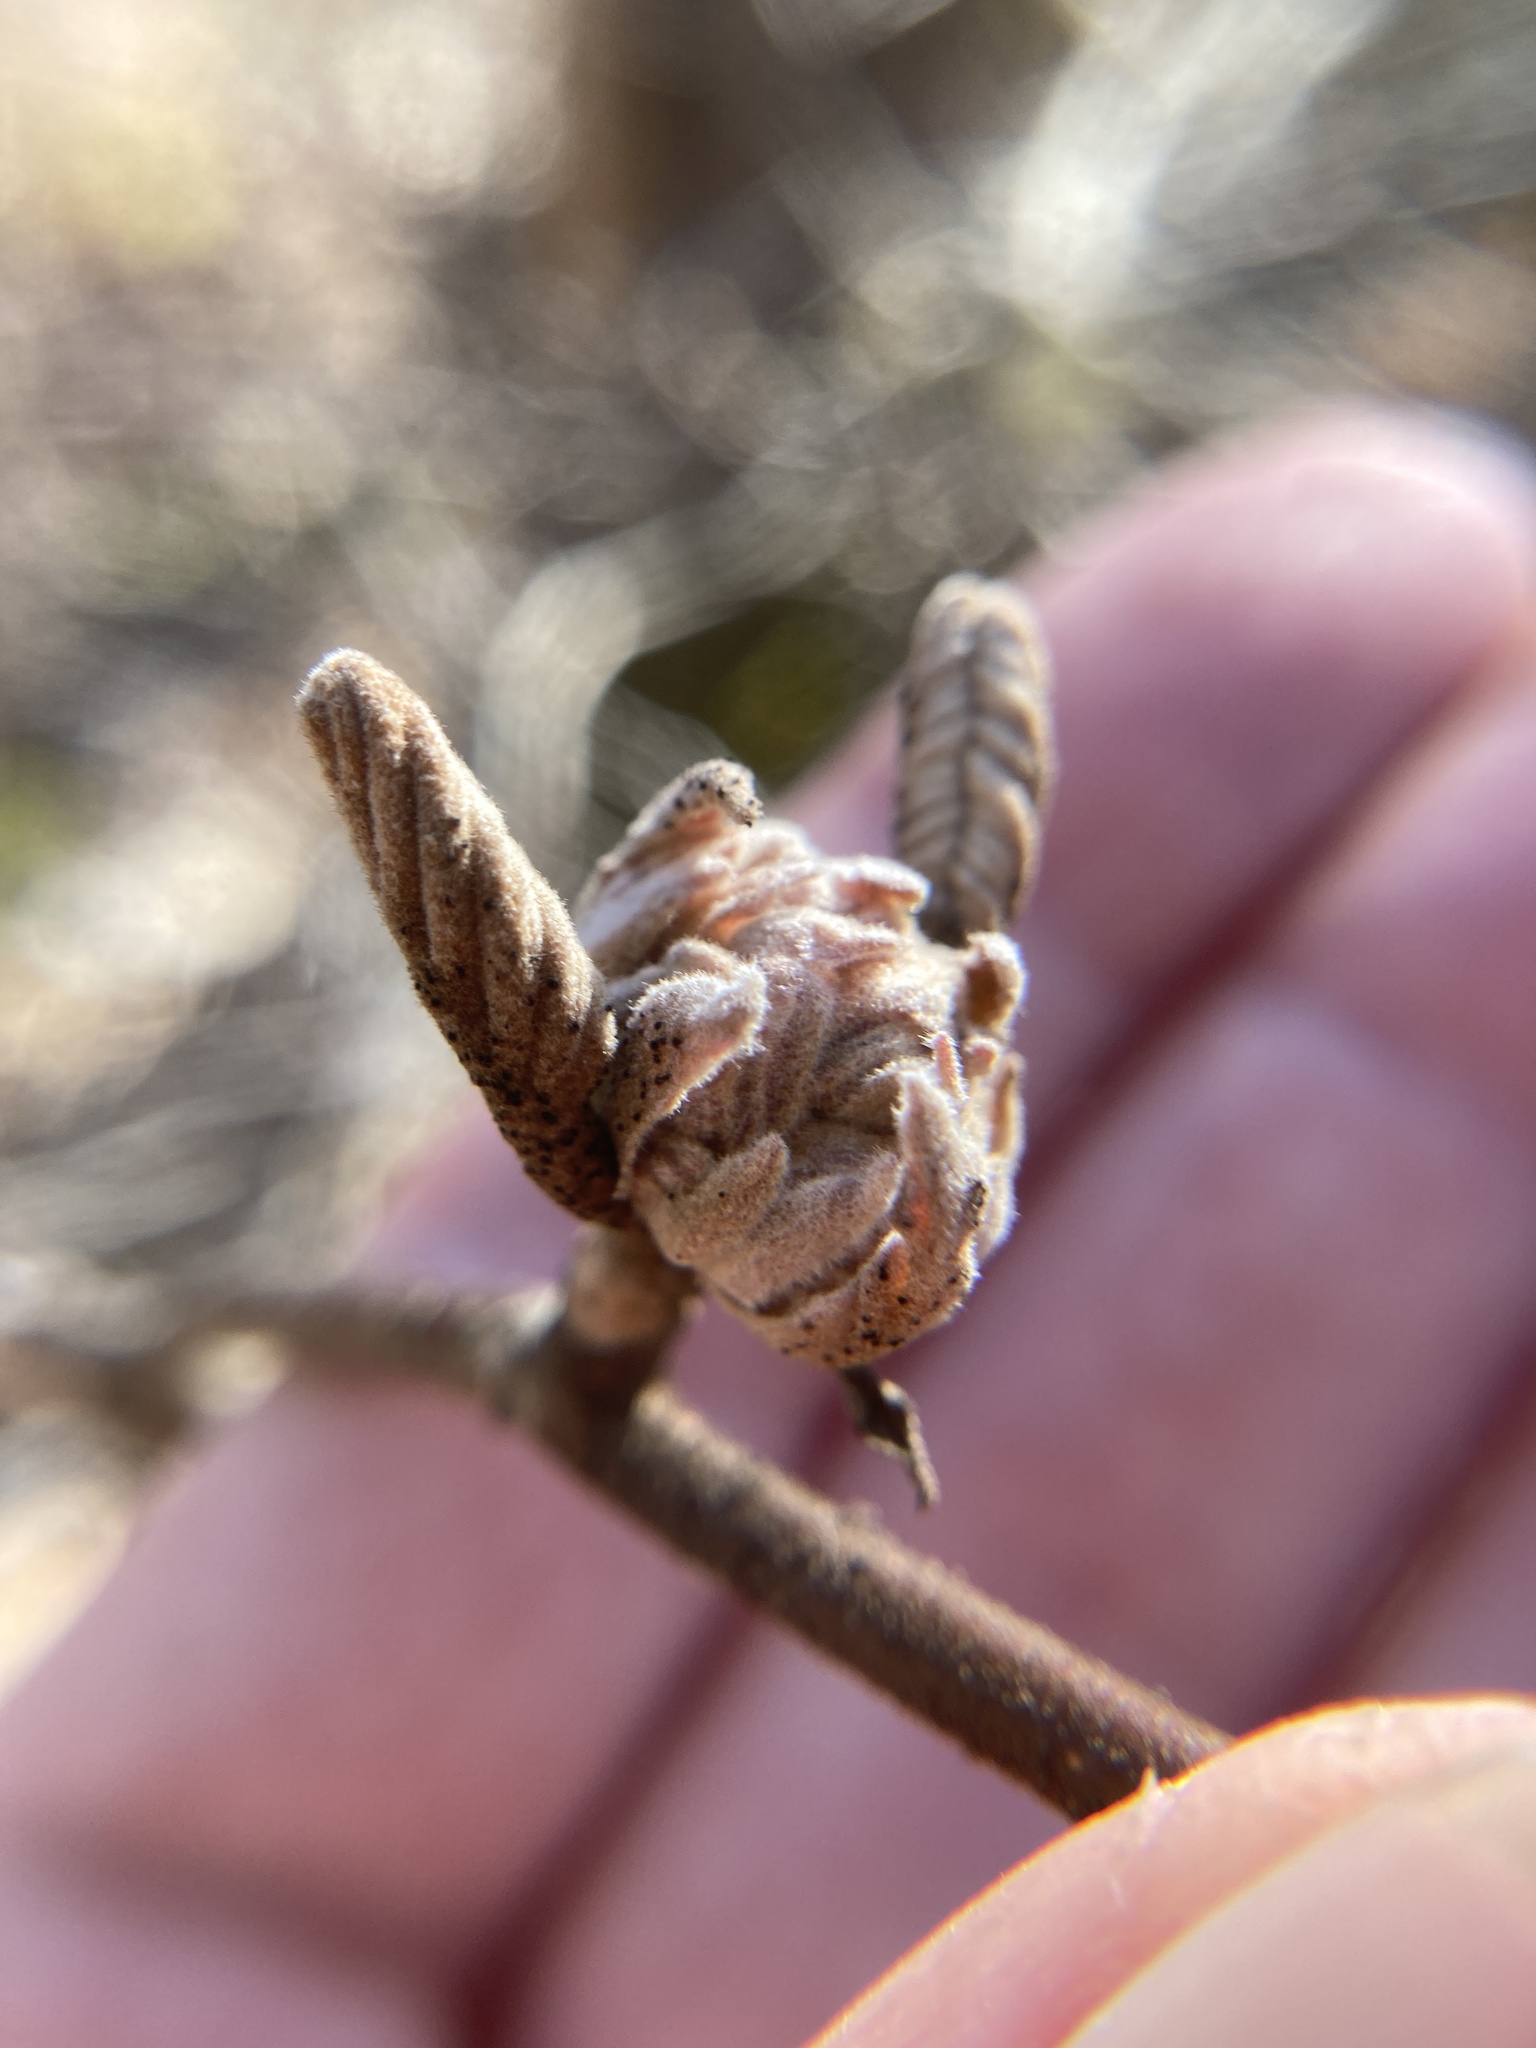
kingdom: Plantae
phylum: Tracheophyta
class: Magnoliopsida
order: Dipsacales
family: Viburnaceae
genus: Viburnum
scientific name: Viburnum lantanoides
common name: Hobblebush
